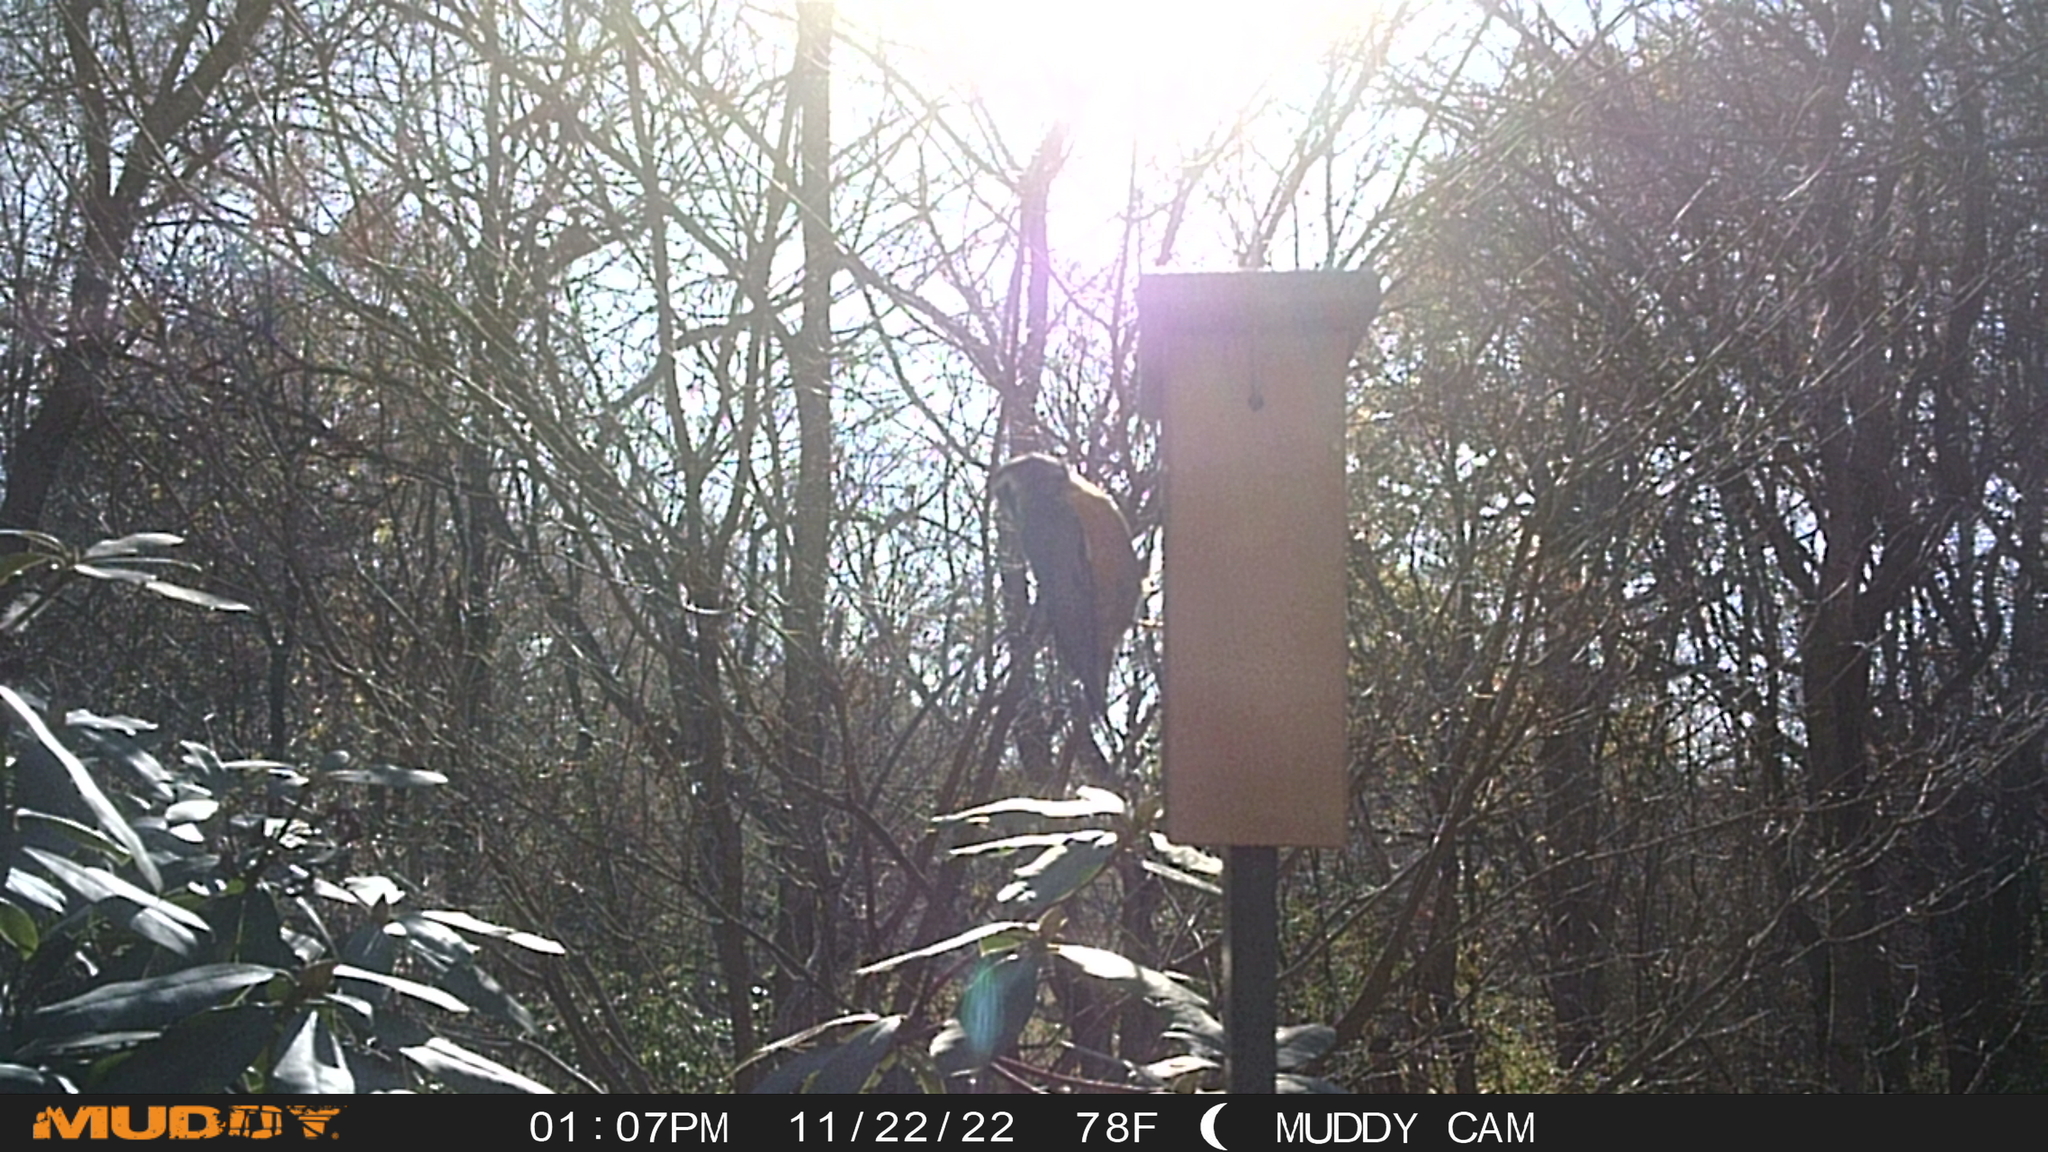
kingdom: Animalia
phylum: Chordata
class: Aves
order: Passeriformes
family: Sittidae
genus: Sitta
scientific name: Sitta canadensis
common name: Red-breasted nuthatch
